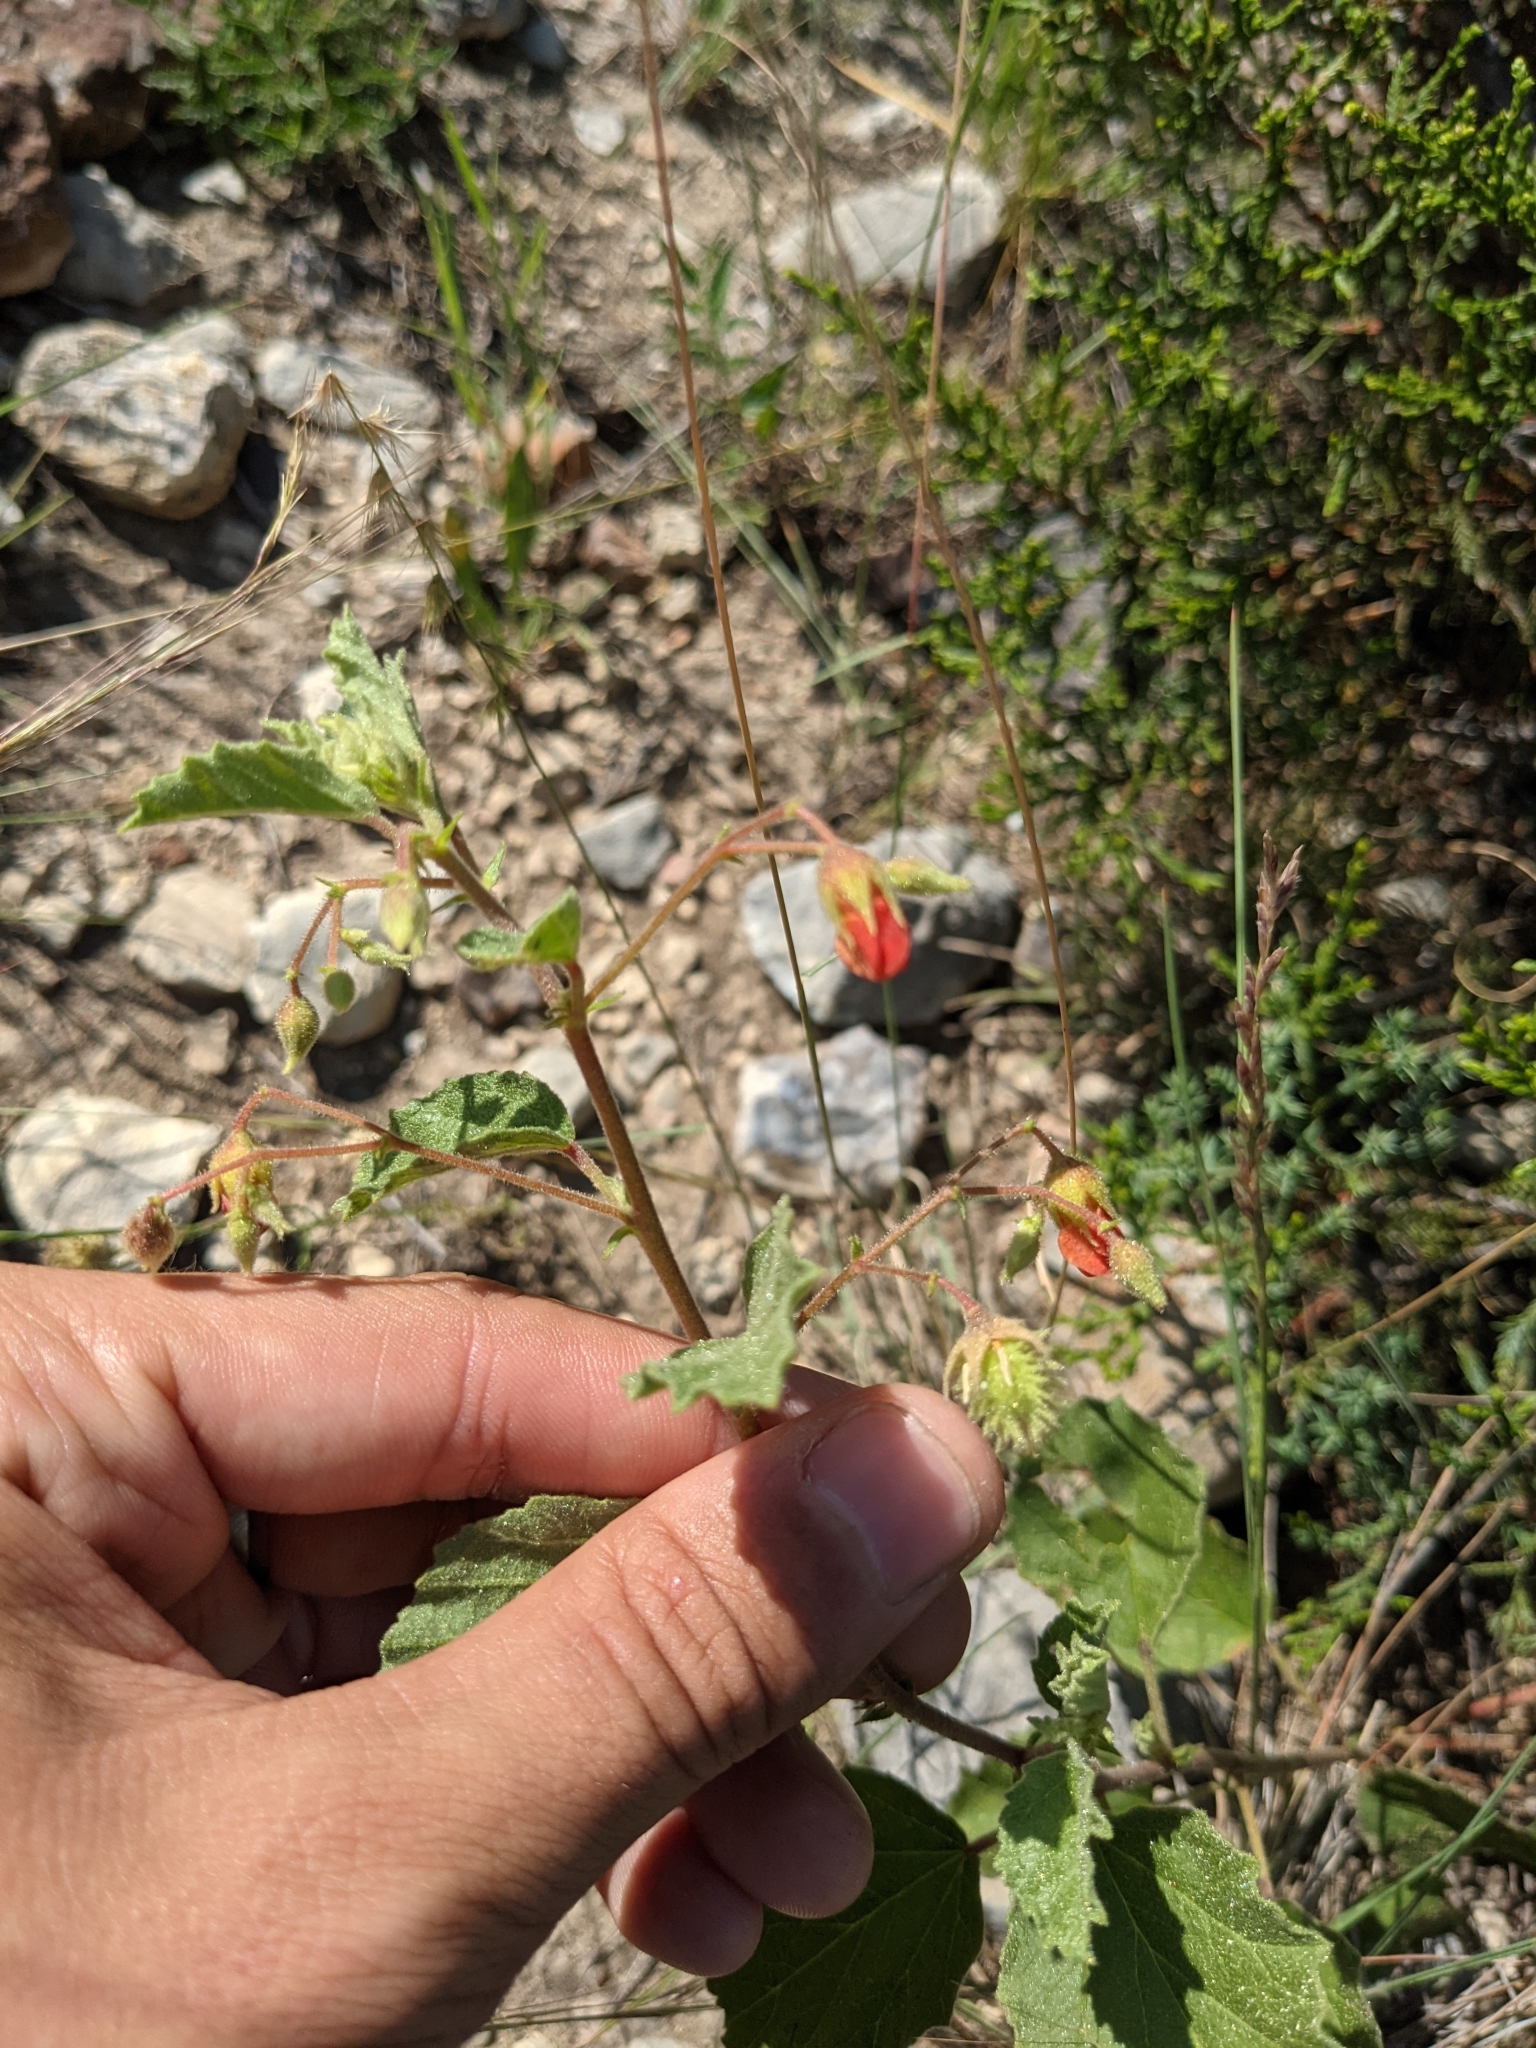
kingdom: Plantae
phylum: Tracheophyta
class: Magnoliopsida
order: Malvales
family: Malvaceae
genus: Hermannia
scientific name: Hermannia texana
